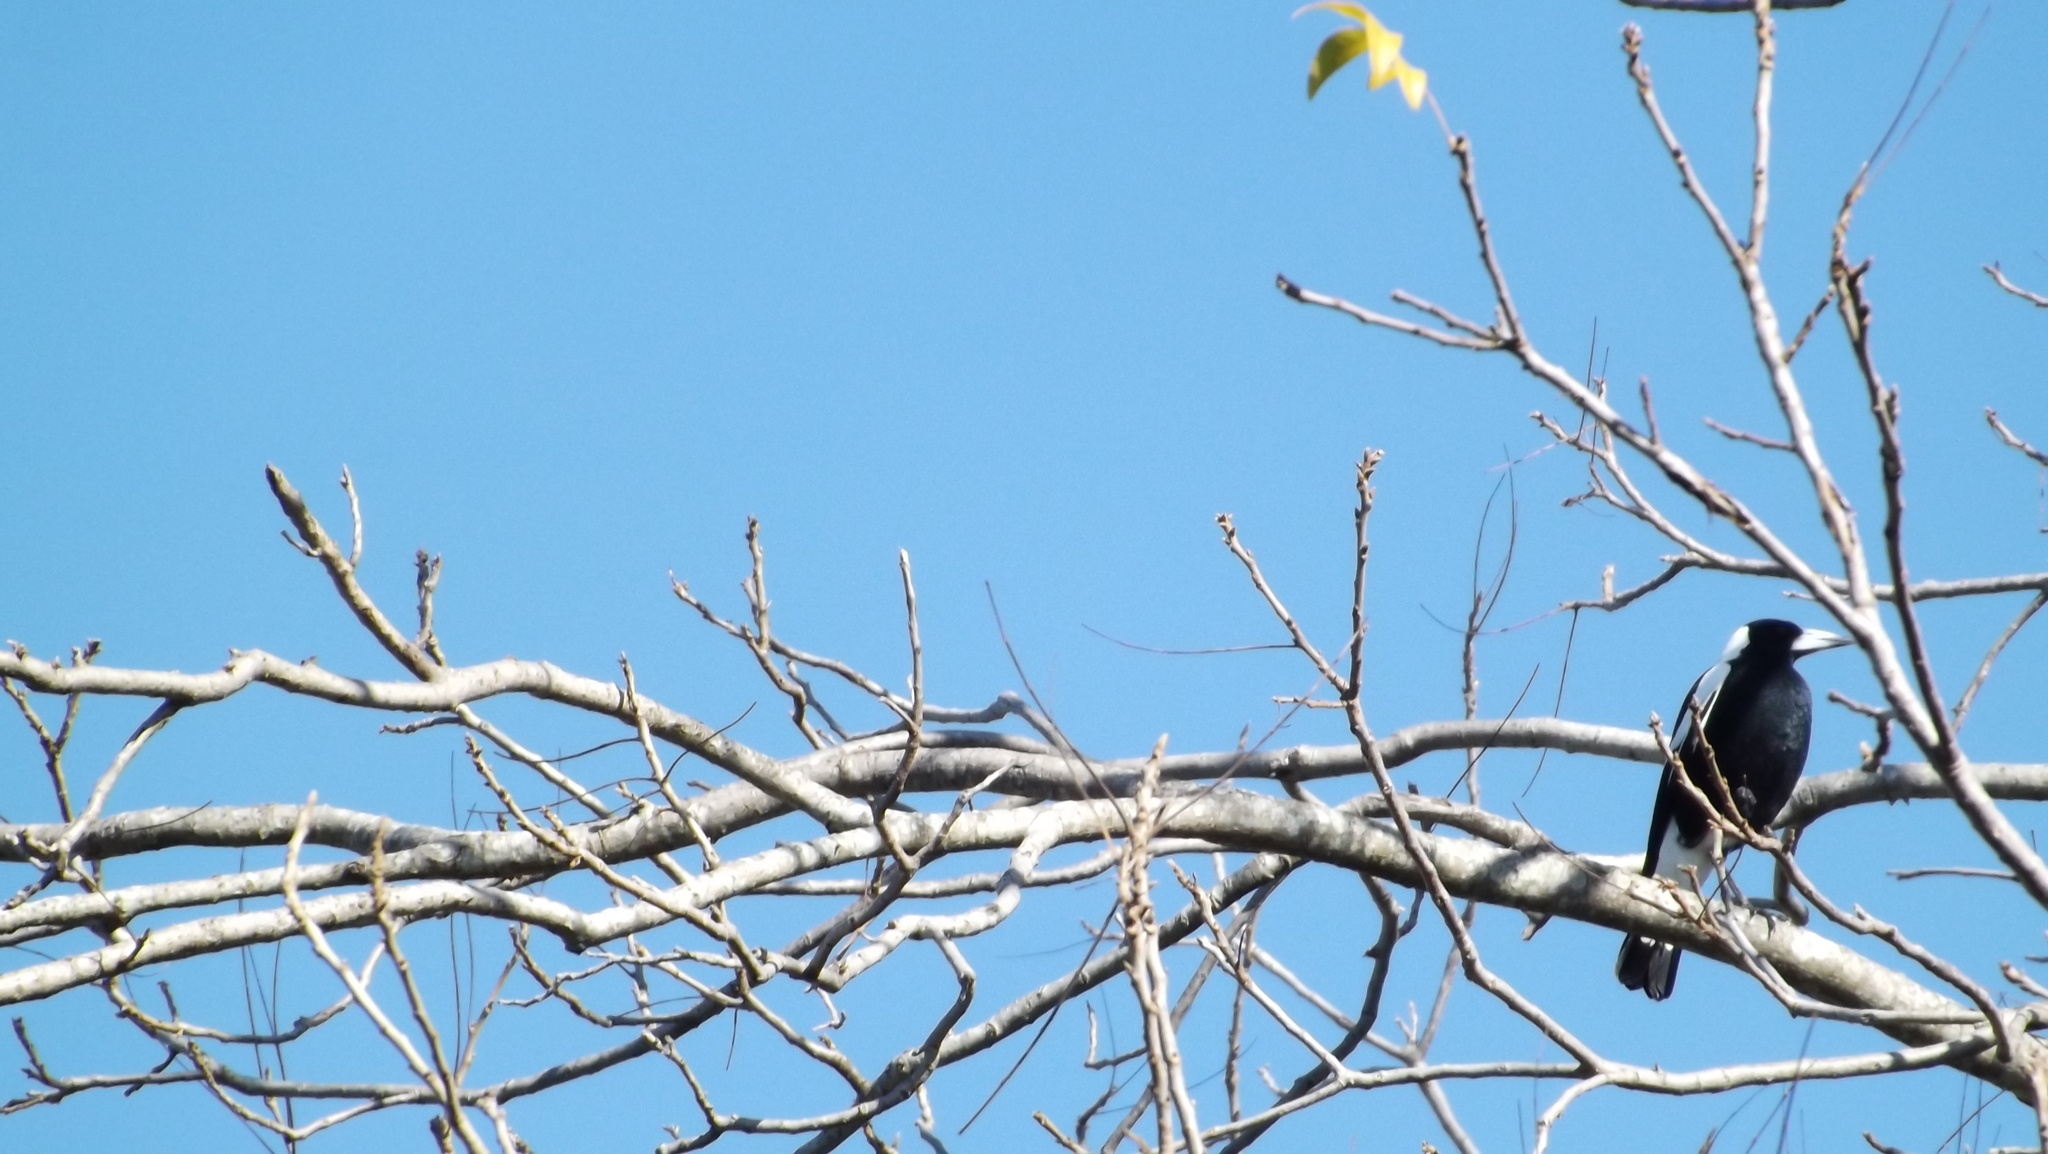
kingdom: Animalia
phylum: Chordata
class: Aves
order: Passeriformes
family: Cracticidae
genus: Gymnorhina
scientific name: Gymnorhina tibicen
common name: Australian magpie
